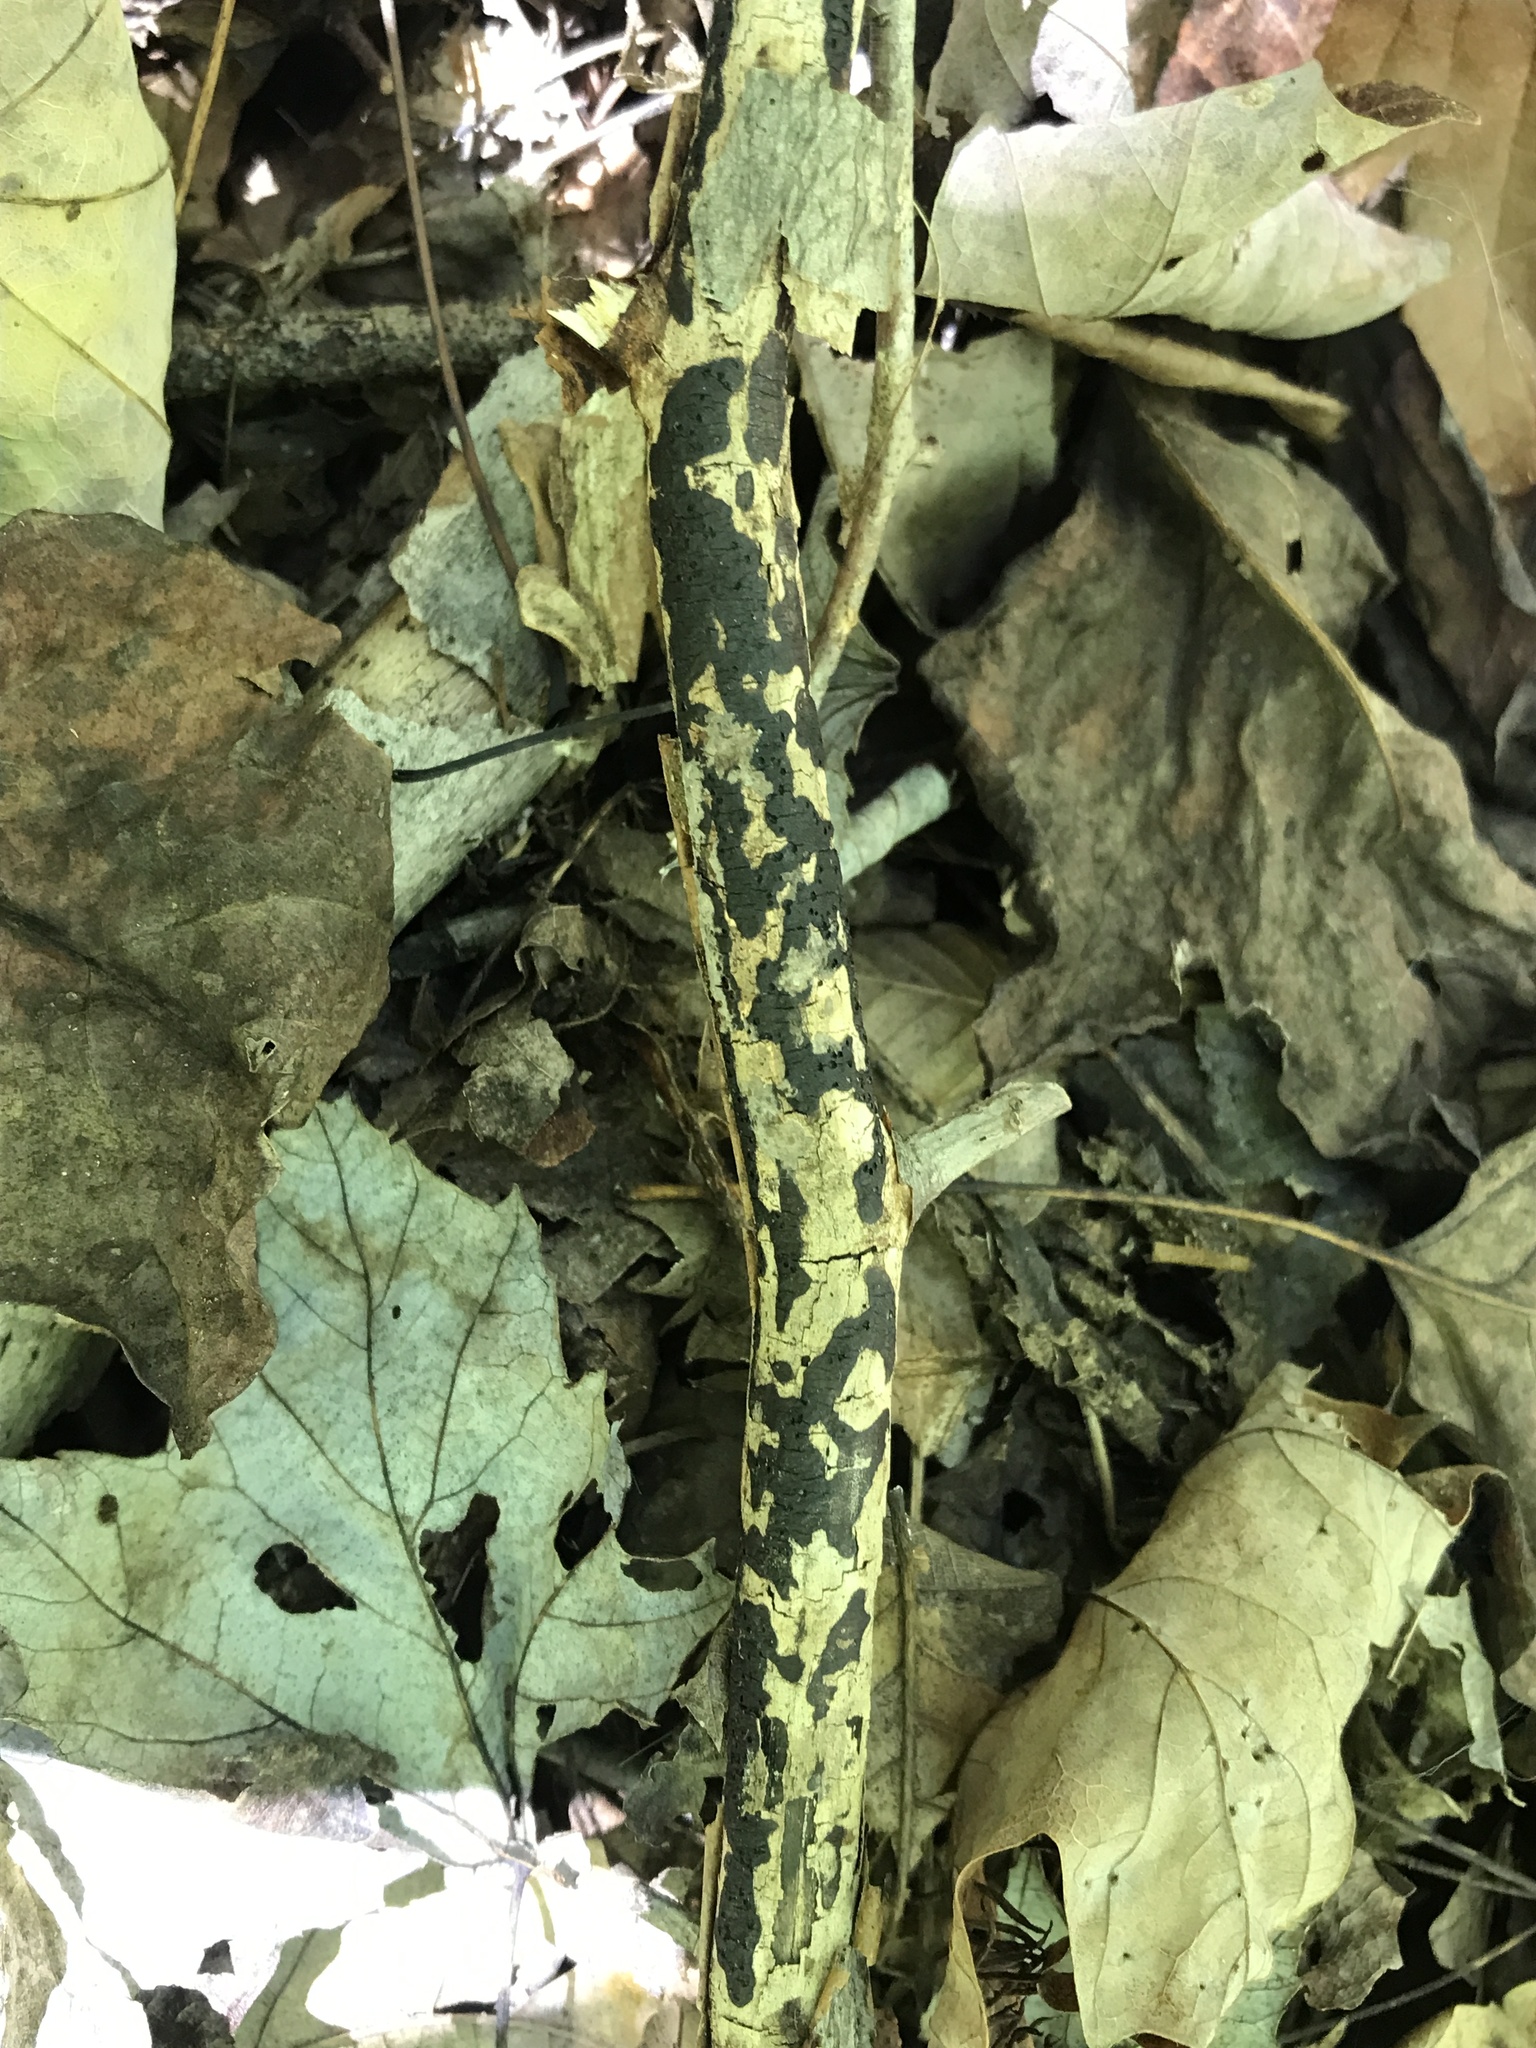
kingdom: Fungi
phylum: Ascomycota
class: Sordariomycetes
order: Xylariales
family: Diatrypaceae
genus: Diatrype
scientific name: Diatrype stigma
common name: Common tarcrust
